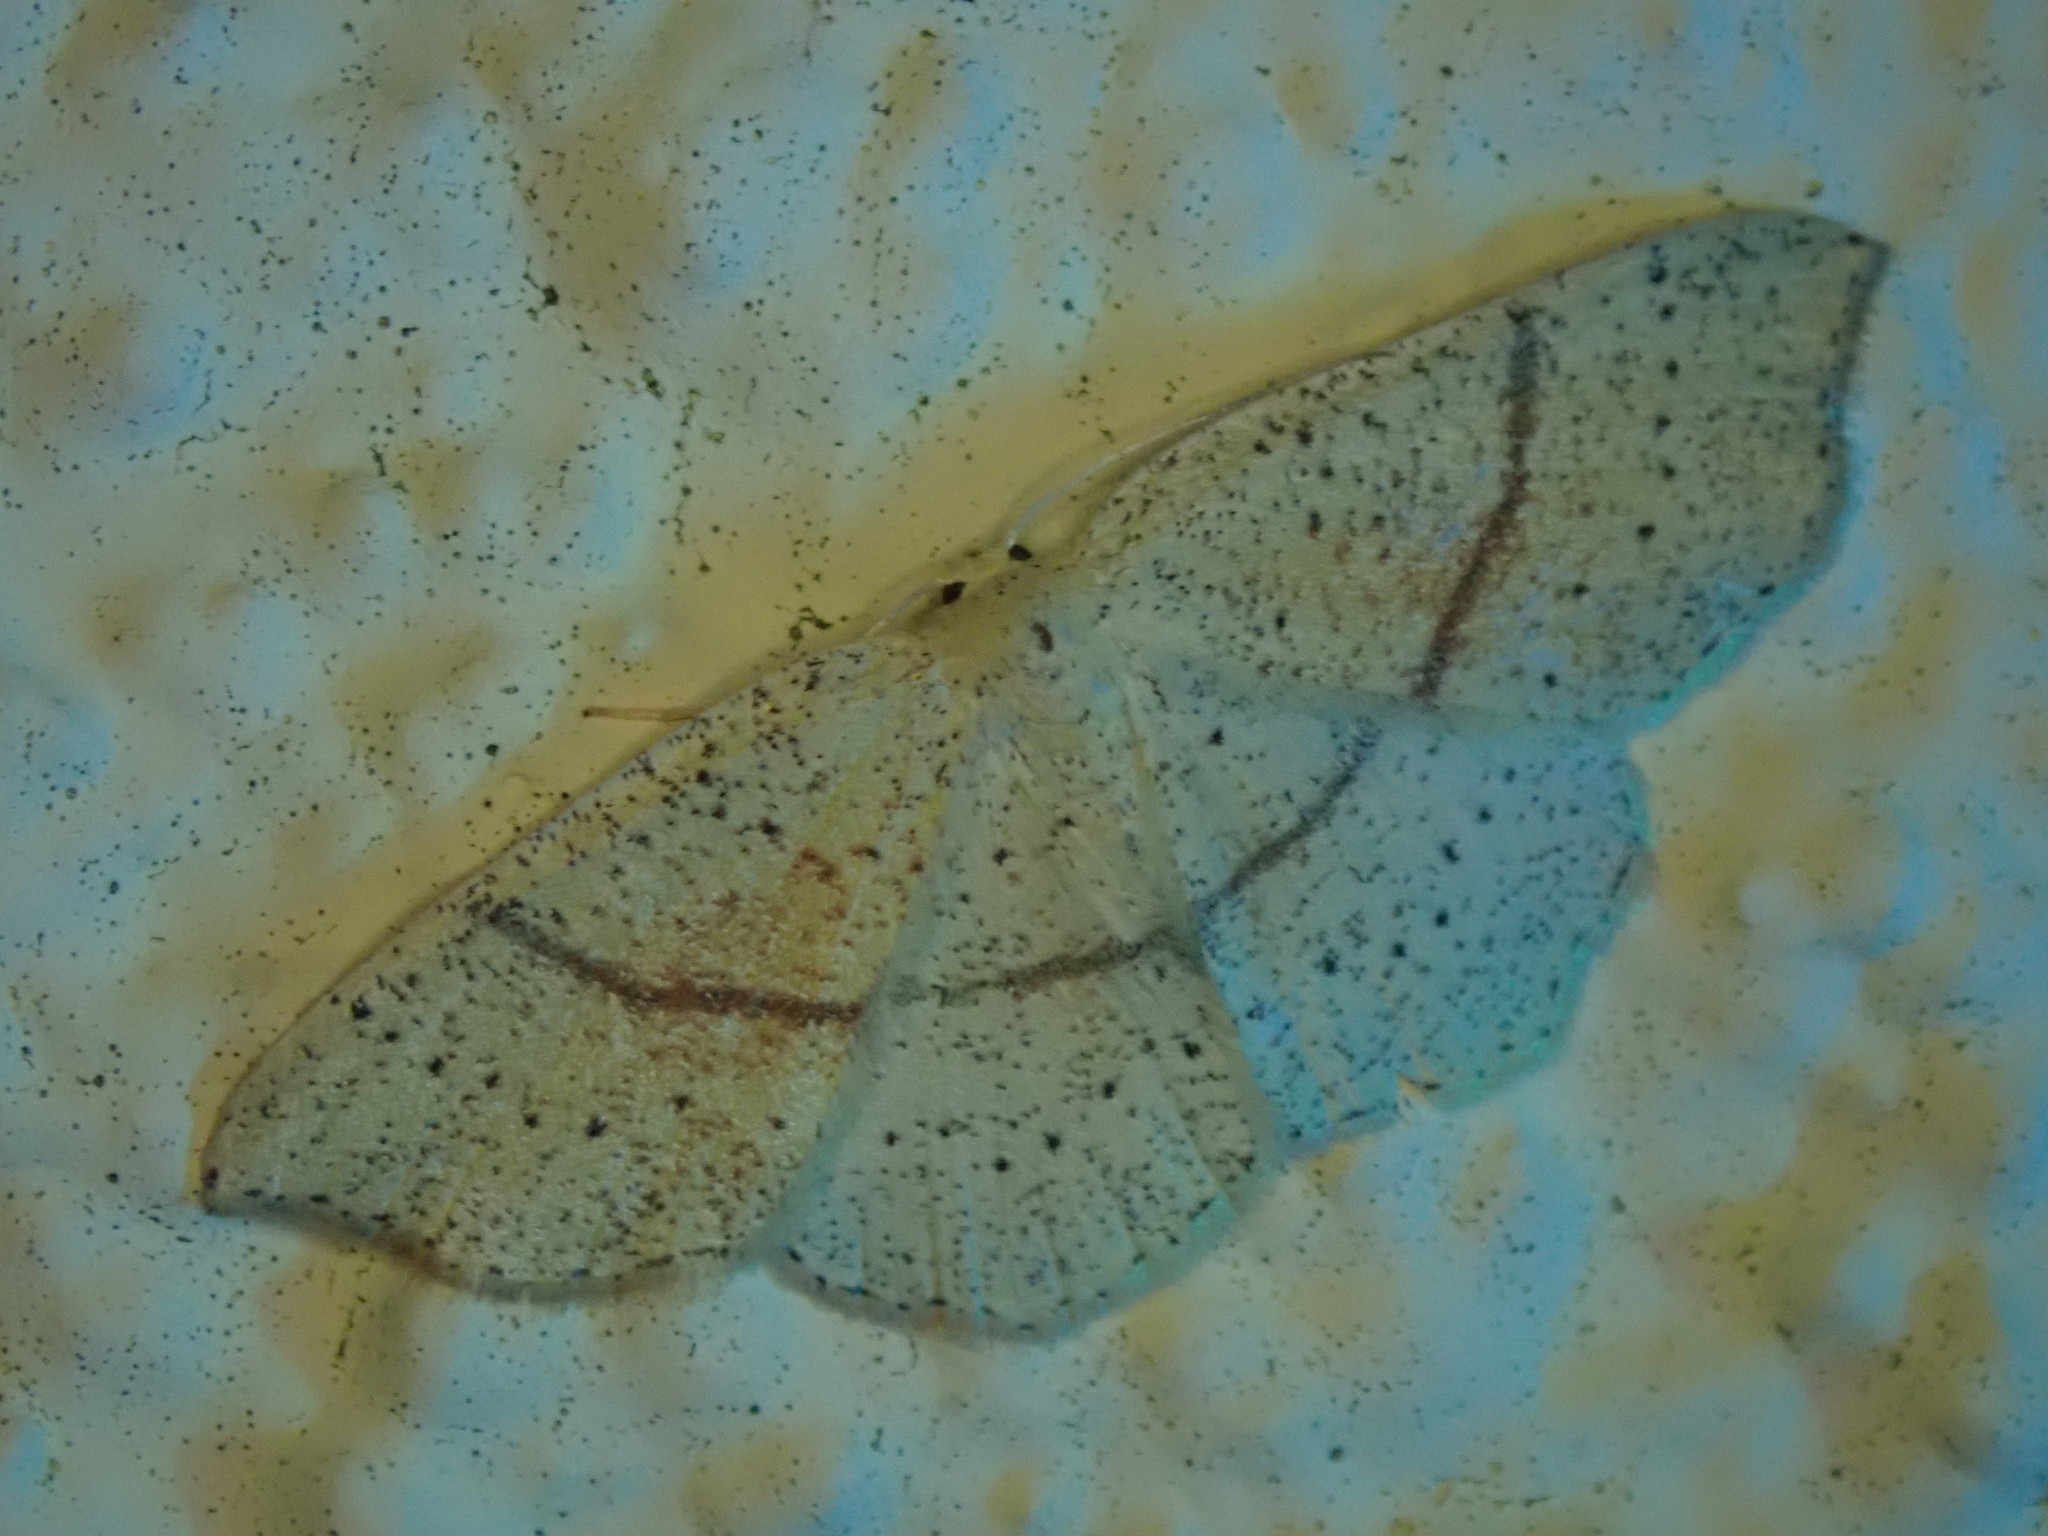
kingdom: Animalia
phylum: Arthropoda
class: Insecta
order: Lepidoptera
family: Geometridae
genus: Cyclophora
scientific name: Cyclophora punctaria
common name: Maiden's blush
